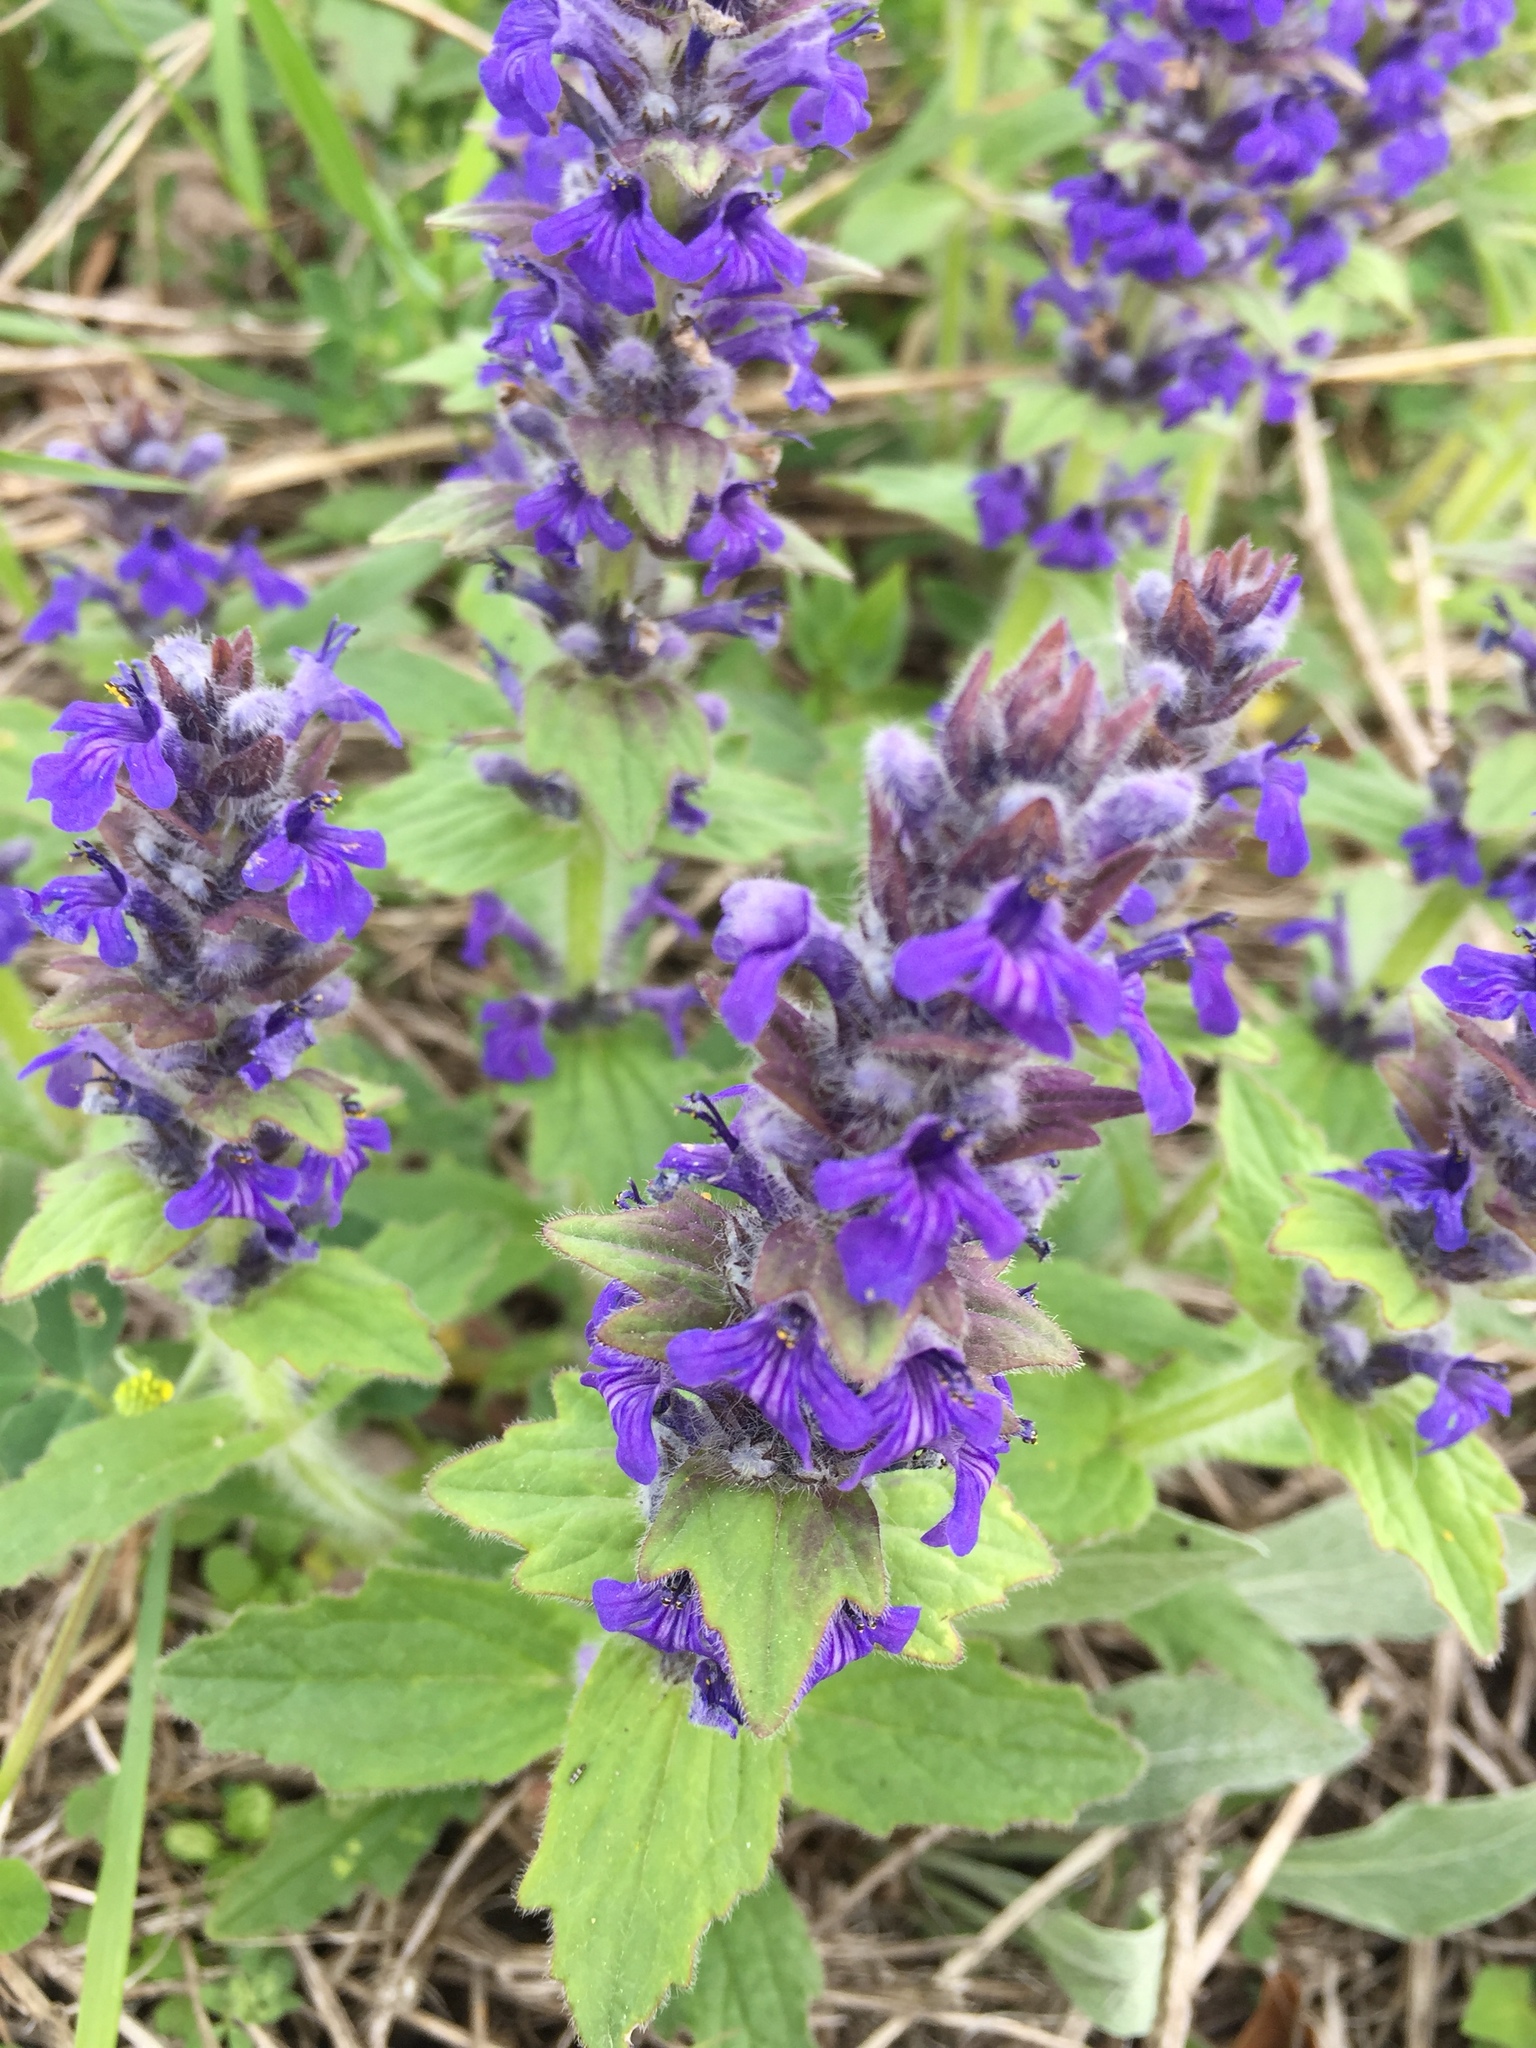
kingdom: Plantae
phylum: Tracheophyta
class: Magnoliopsida
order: Lamiales
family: Lamiaceae
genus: Ajuga
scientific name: Ajuga genevensis
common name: Blue bugle
